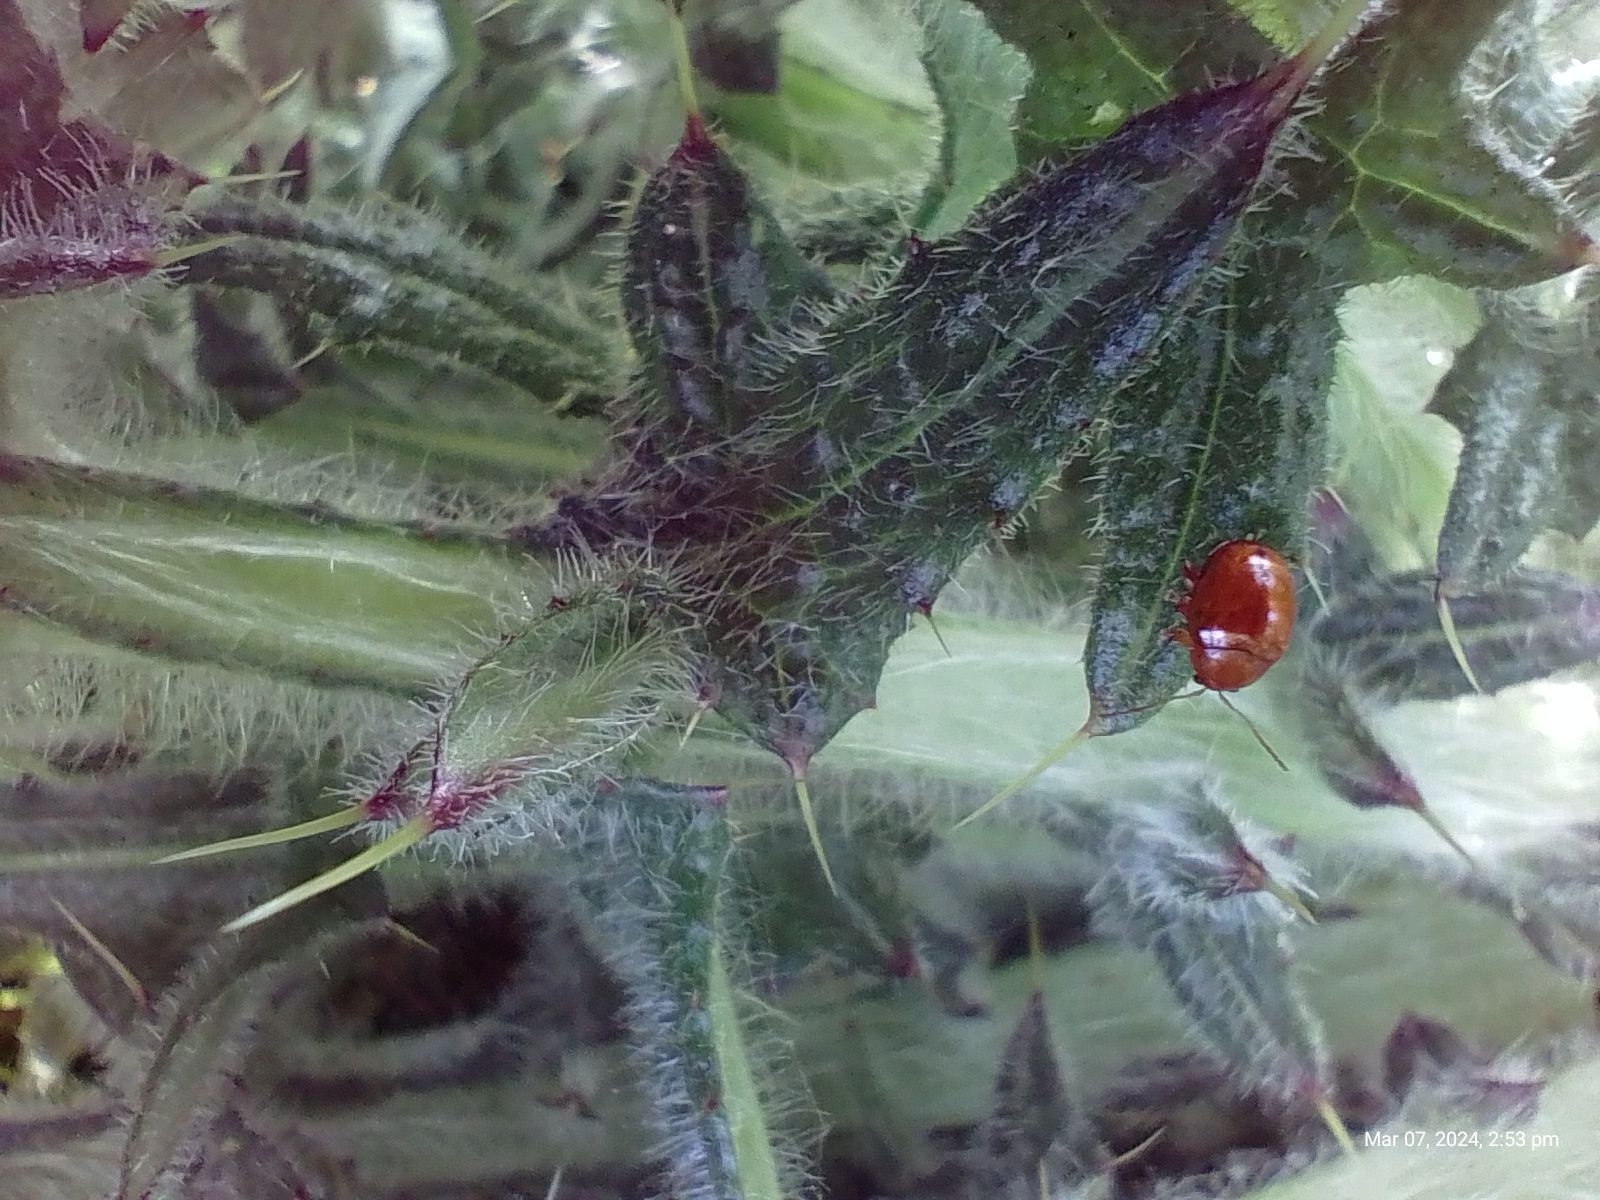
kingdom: Animalia
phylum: Arthropoda
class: Insecta
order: Coleoptera
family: Chrysomelidae
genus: Pistosia
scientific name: Pistosia testacea
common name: Leaf beetle
